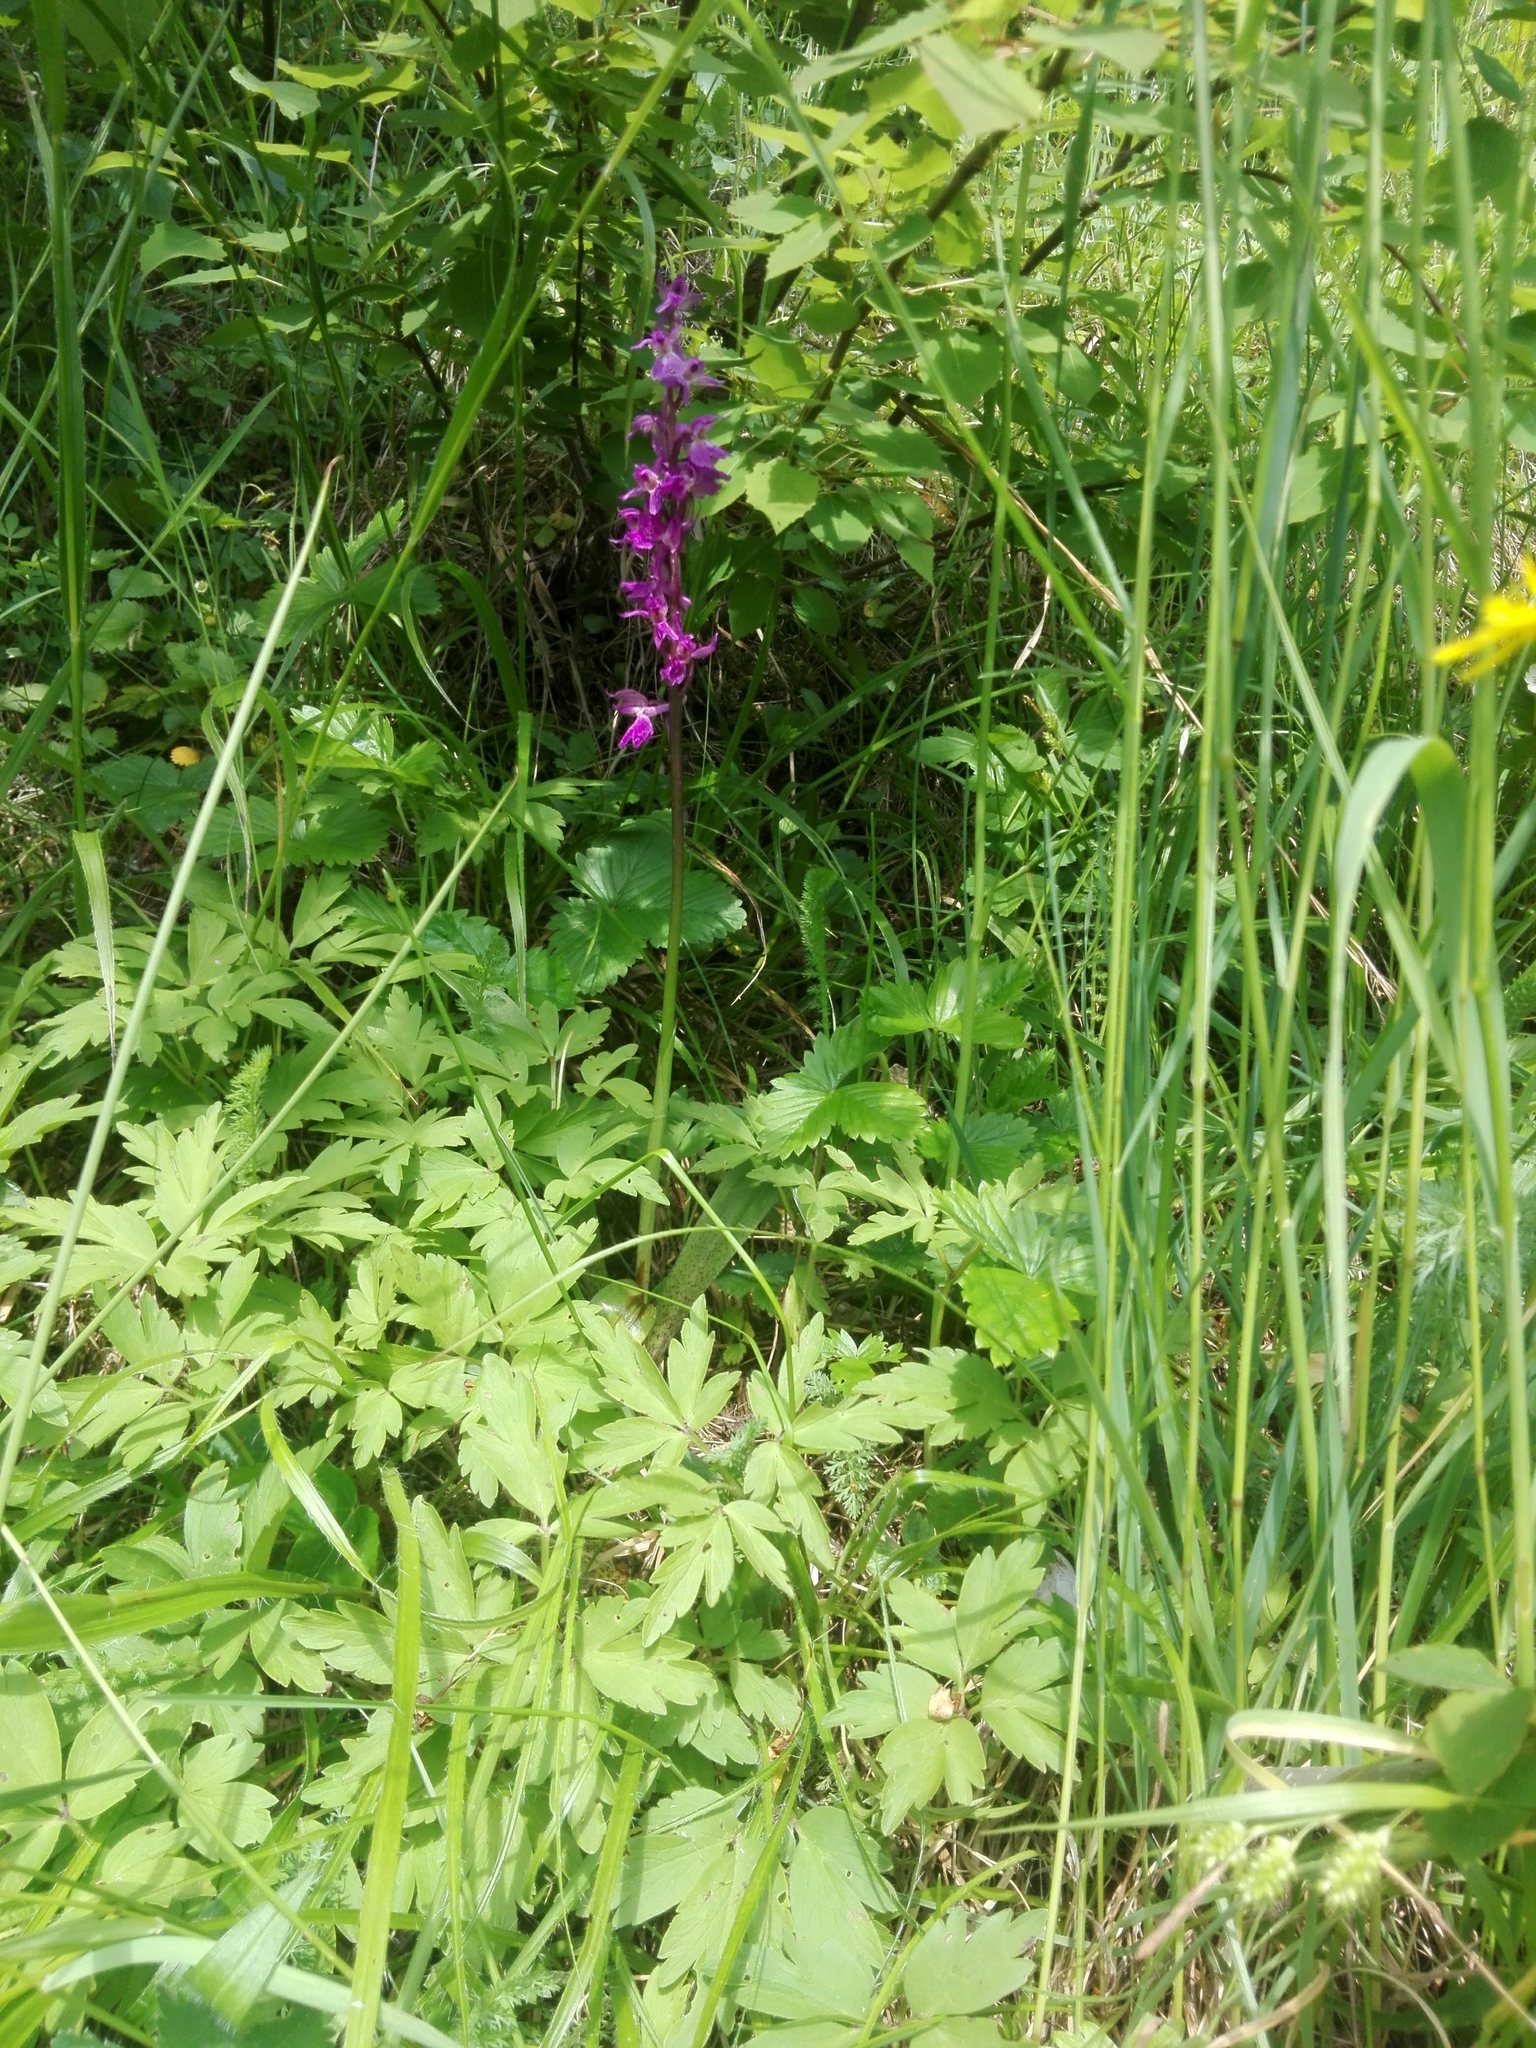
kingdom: Plantae
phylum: Tracheophyta
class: Liliopsida
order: Asparagales
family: Orchidaceae
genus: Orchis
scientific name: Orchis mascula
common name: Early-purple orchid
